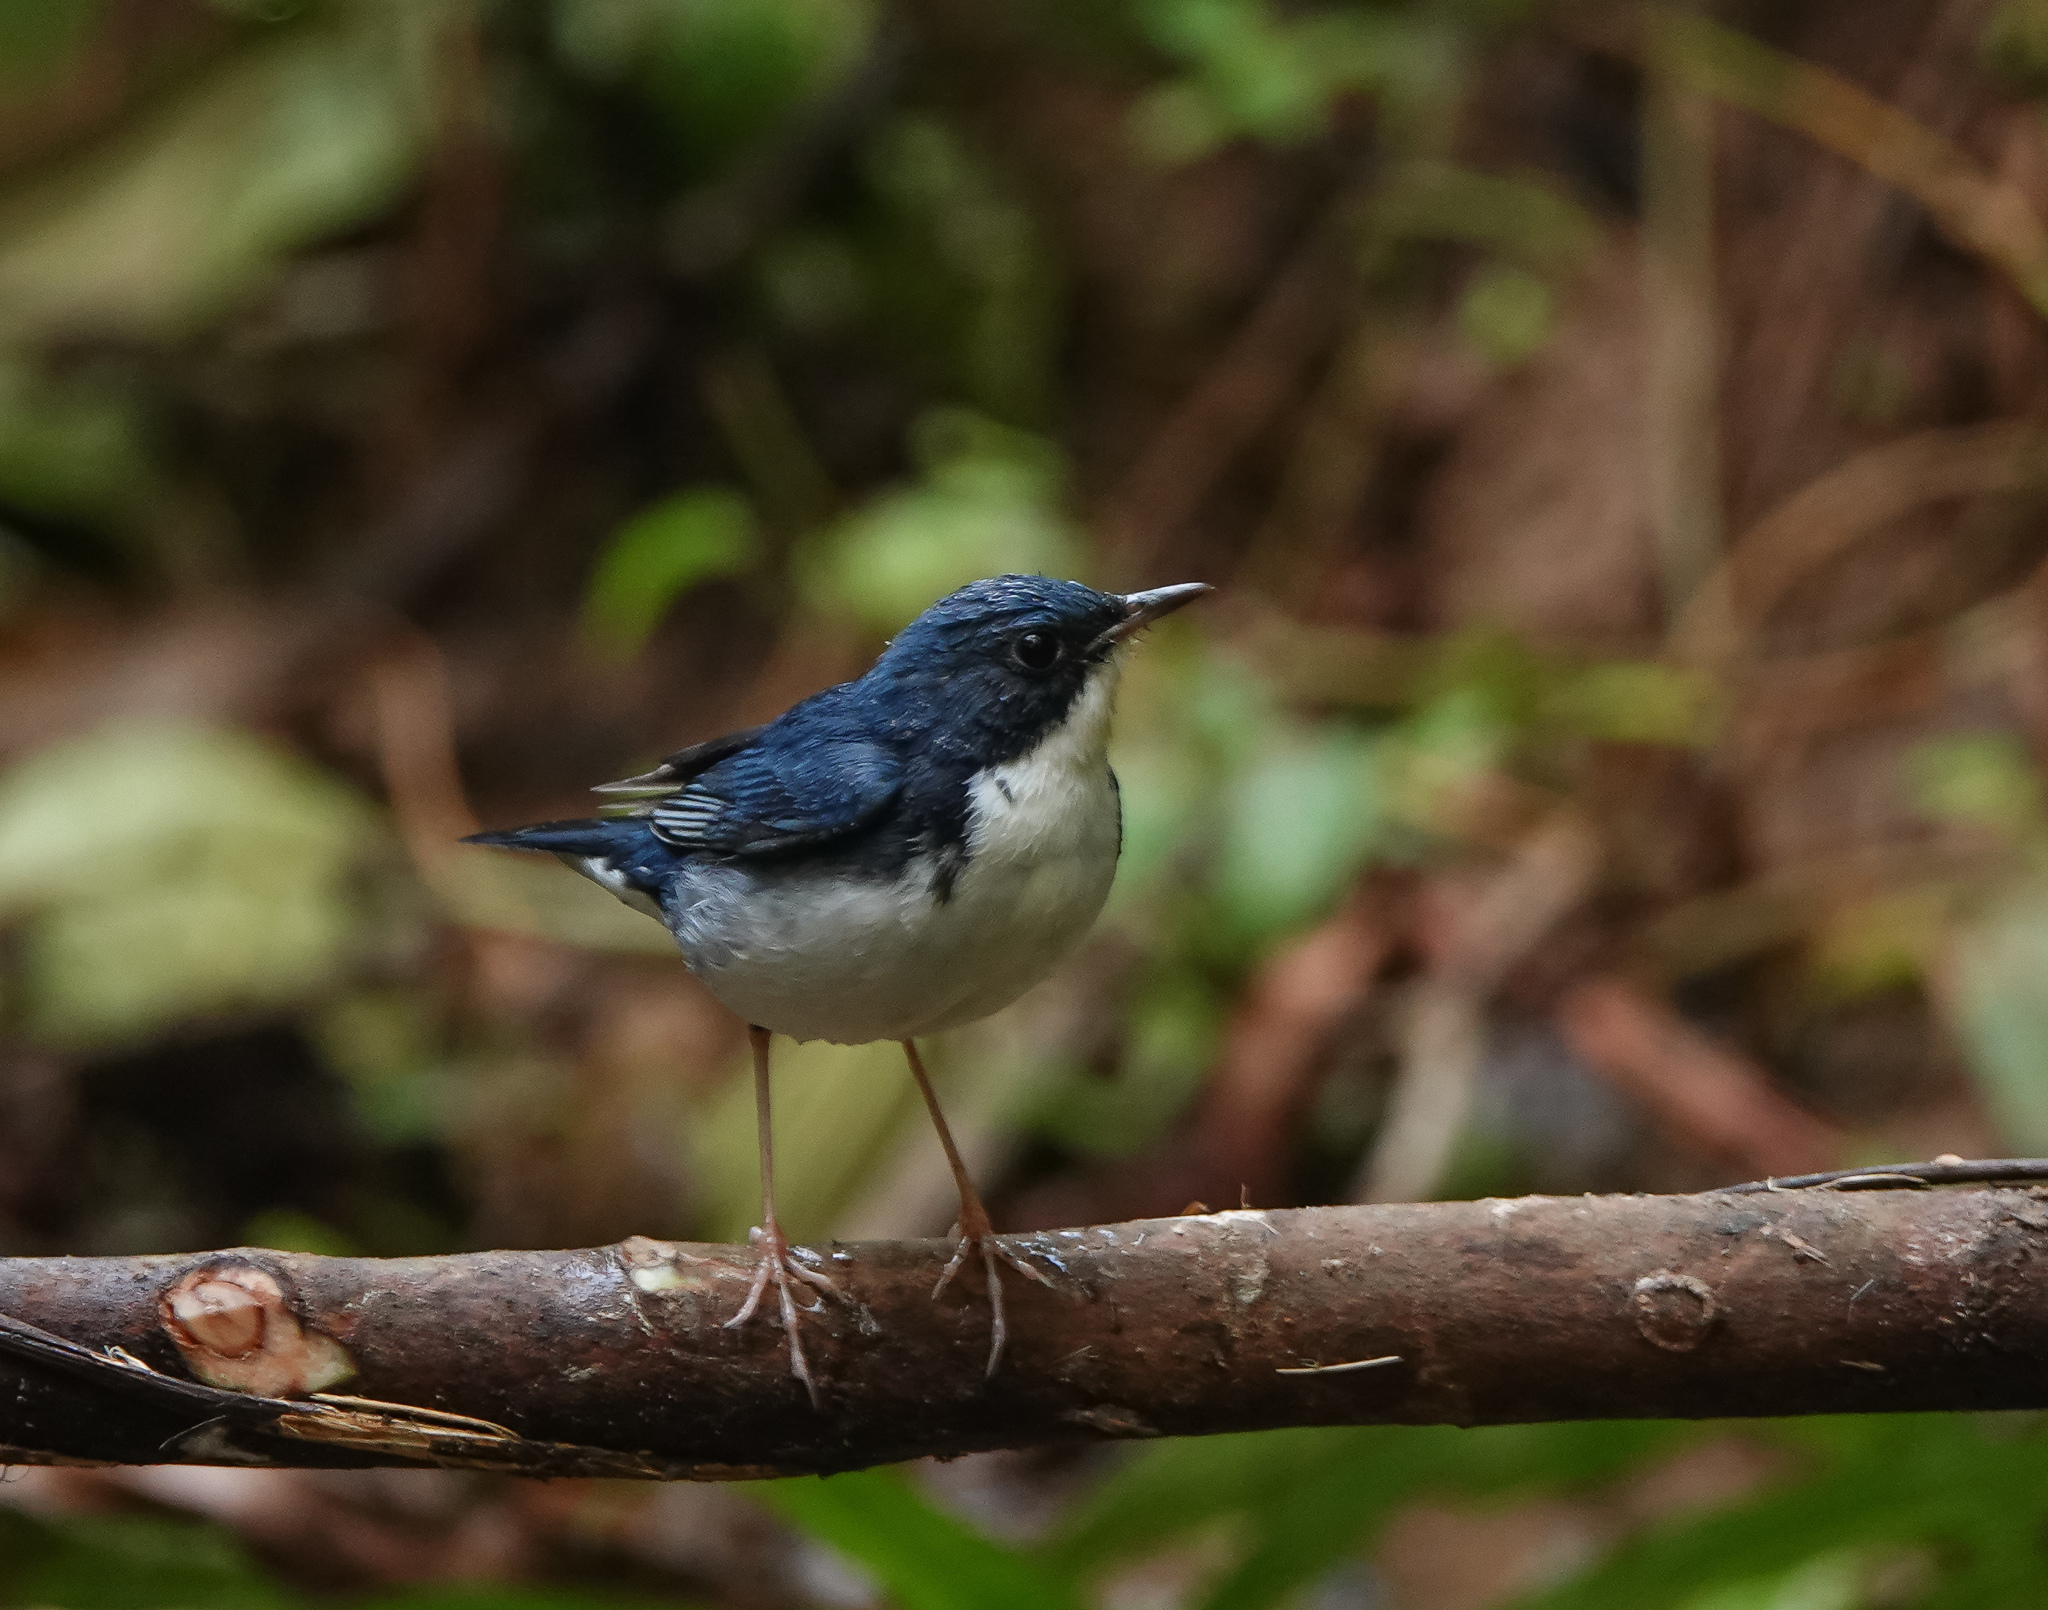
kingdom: Animalia
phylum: Chordata
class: Aves
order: Passeriformes
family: Muscicapidae
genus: Luscinia
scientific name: Luscinia cyane
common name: Siberian blue robin
